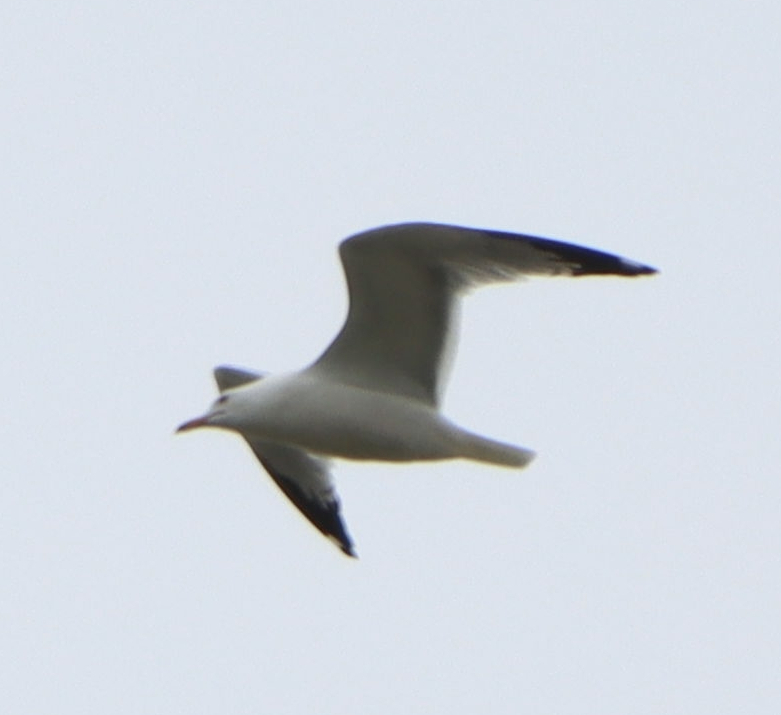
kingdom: Animalia
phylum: Chordata
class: Aves
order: Charadriiformes
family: Laridae
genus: Larus
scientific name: Larus delawarensis
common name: Ring-billed gull
